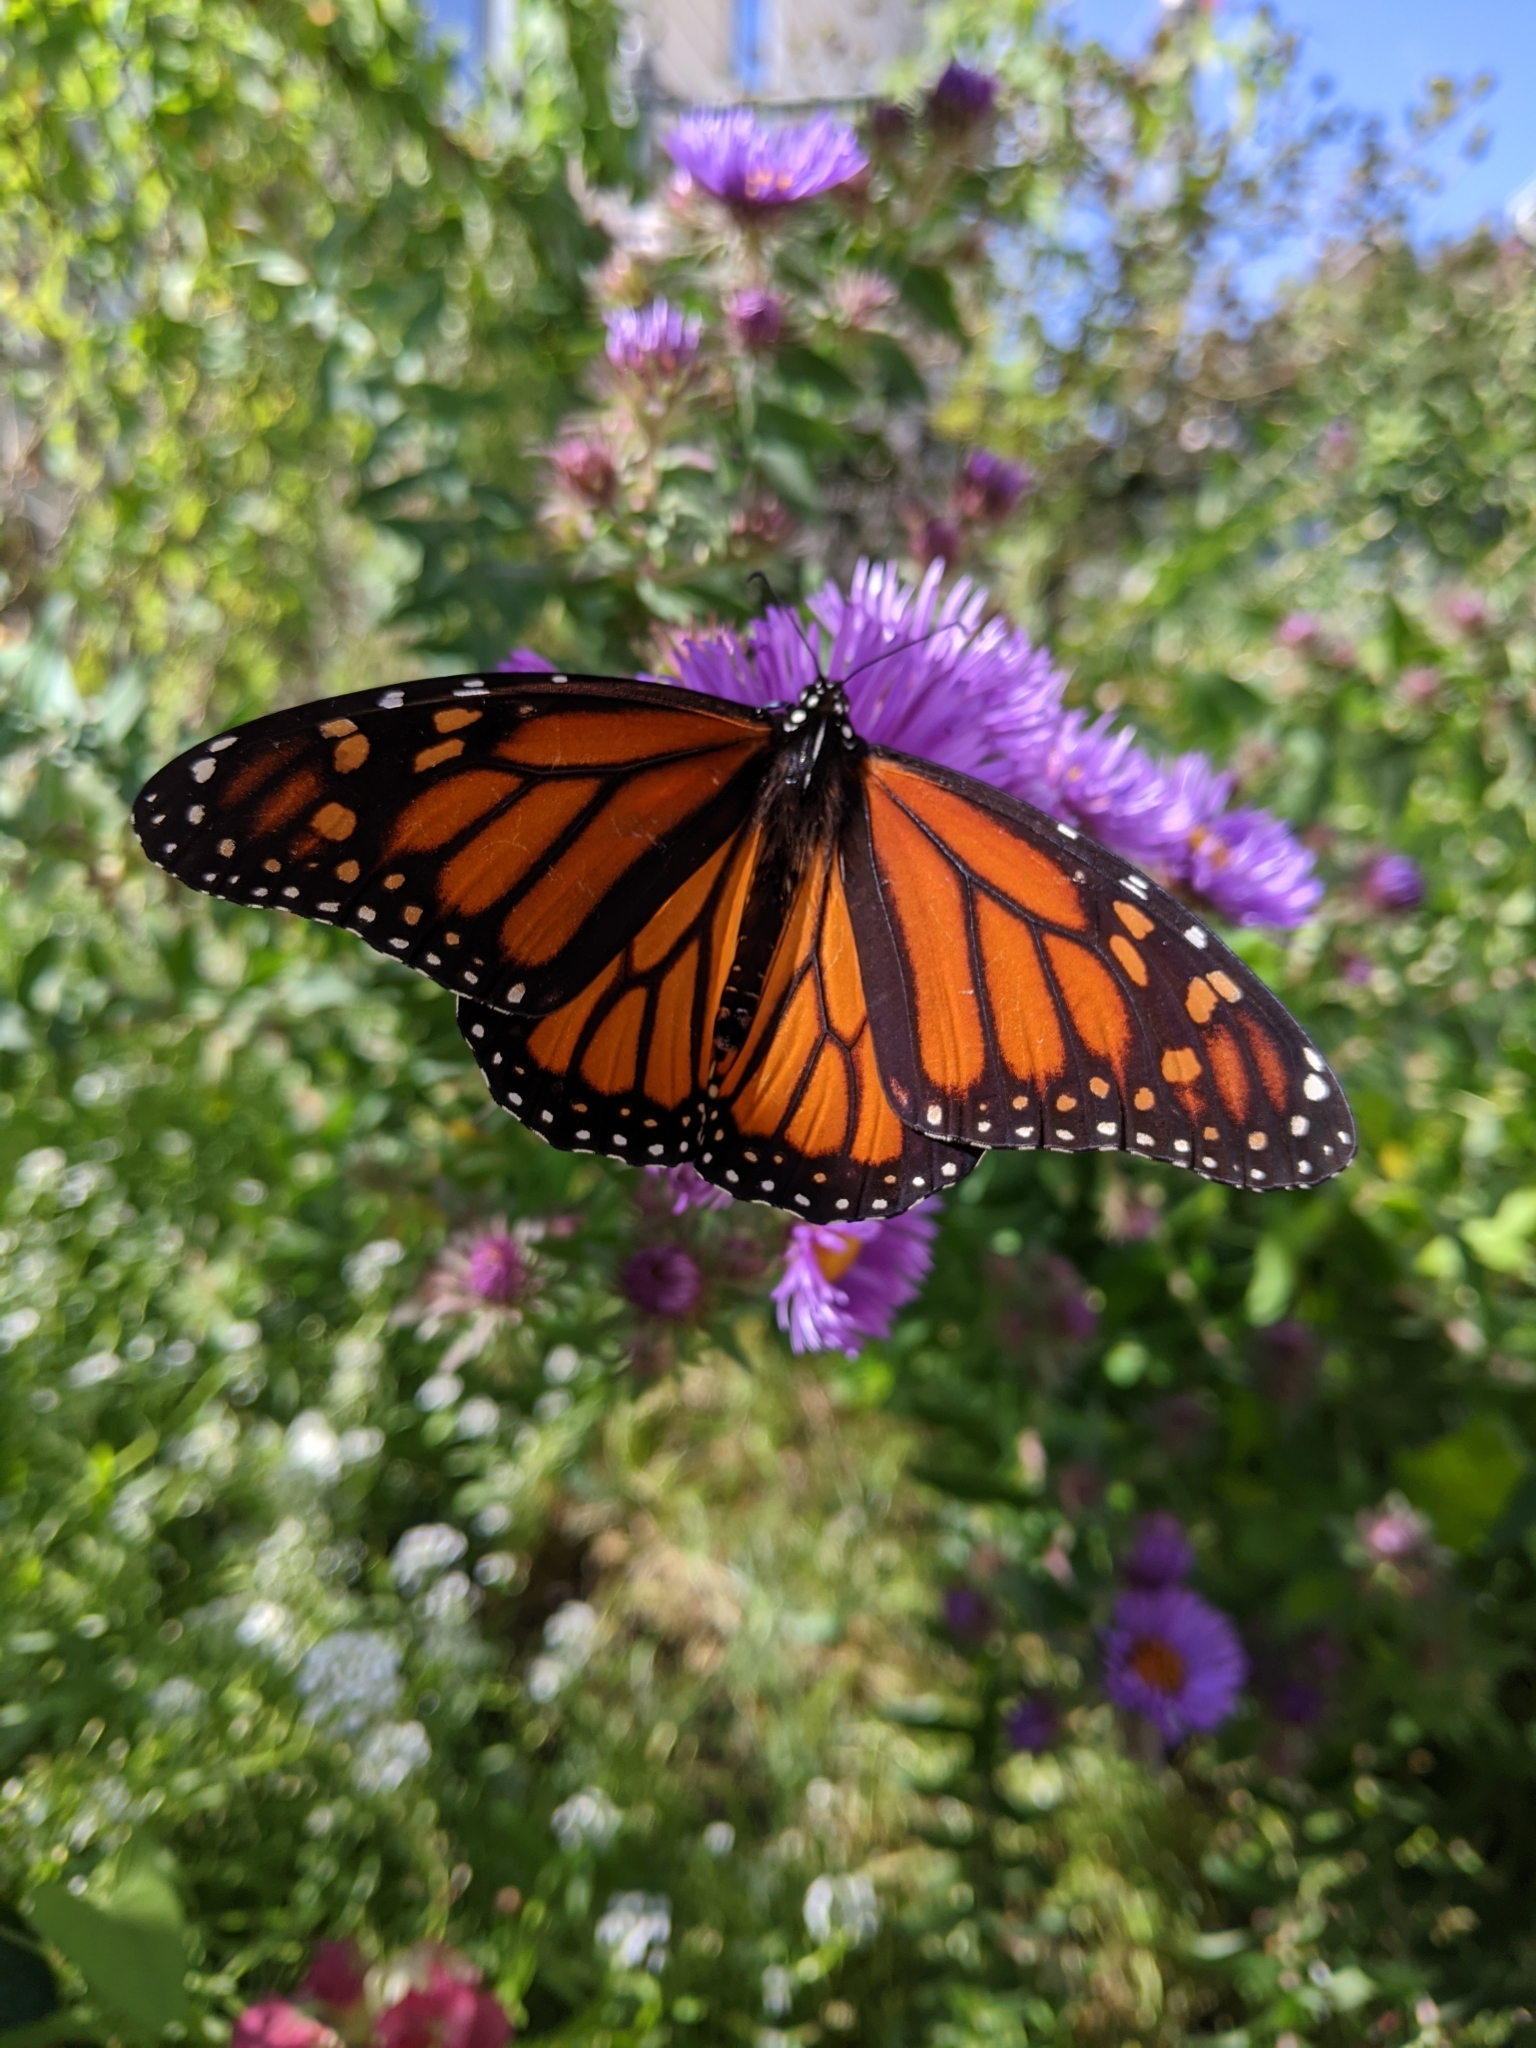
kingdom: Animalia
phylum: Arthropoda
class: Insecta
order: Lepidoptera
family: Nymphalidae
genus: Danaus
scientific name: Danaus plexippus
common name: Monarch
